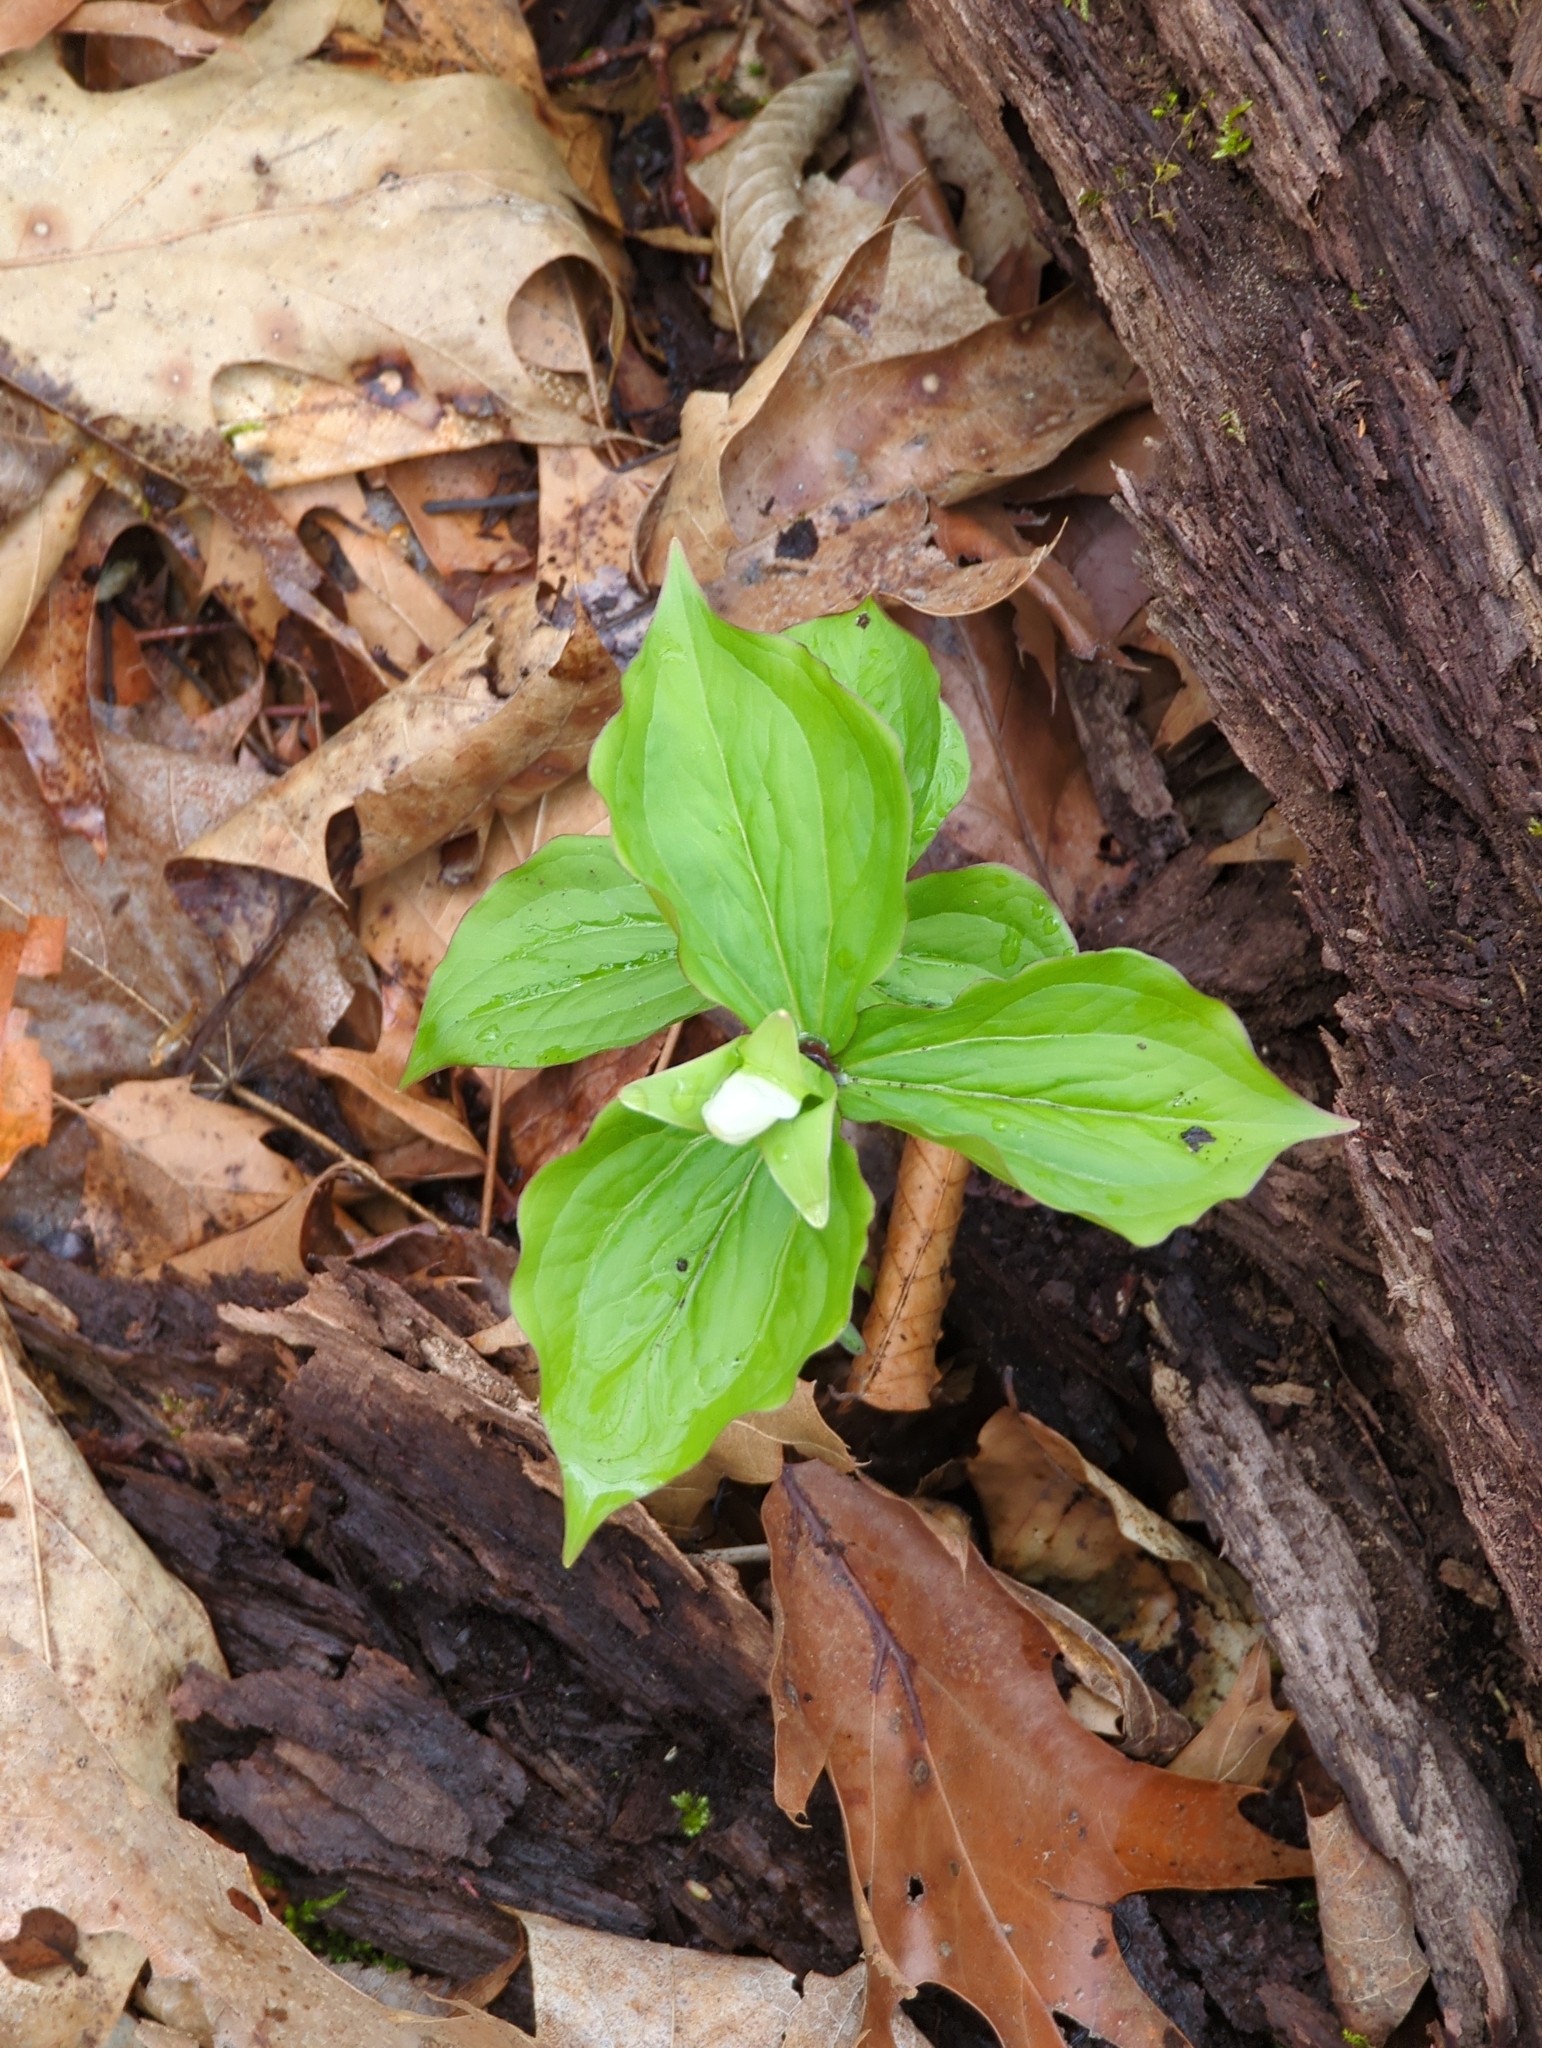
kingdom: Plantae
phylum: Tracheophyta
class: Liliopsida
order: Liliales
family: Melanthiaceae
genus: Trillium
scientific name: Trillium grandiflorum
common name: Great white trillium
